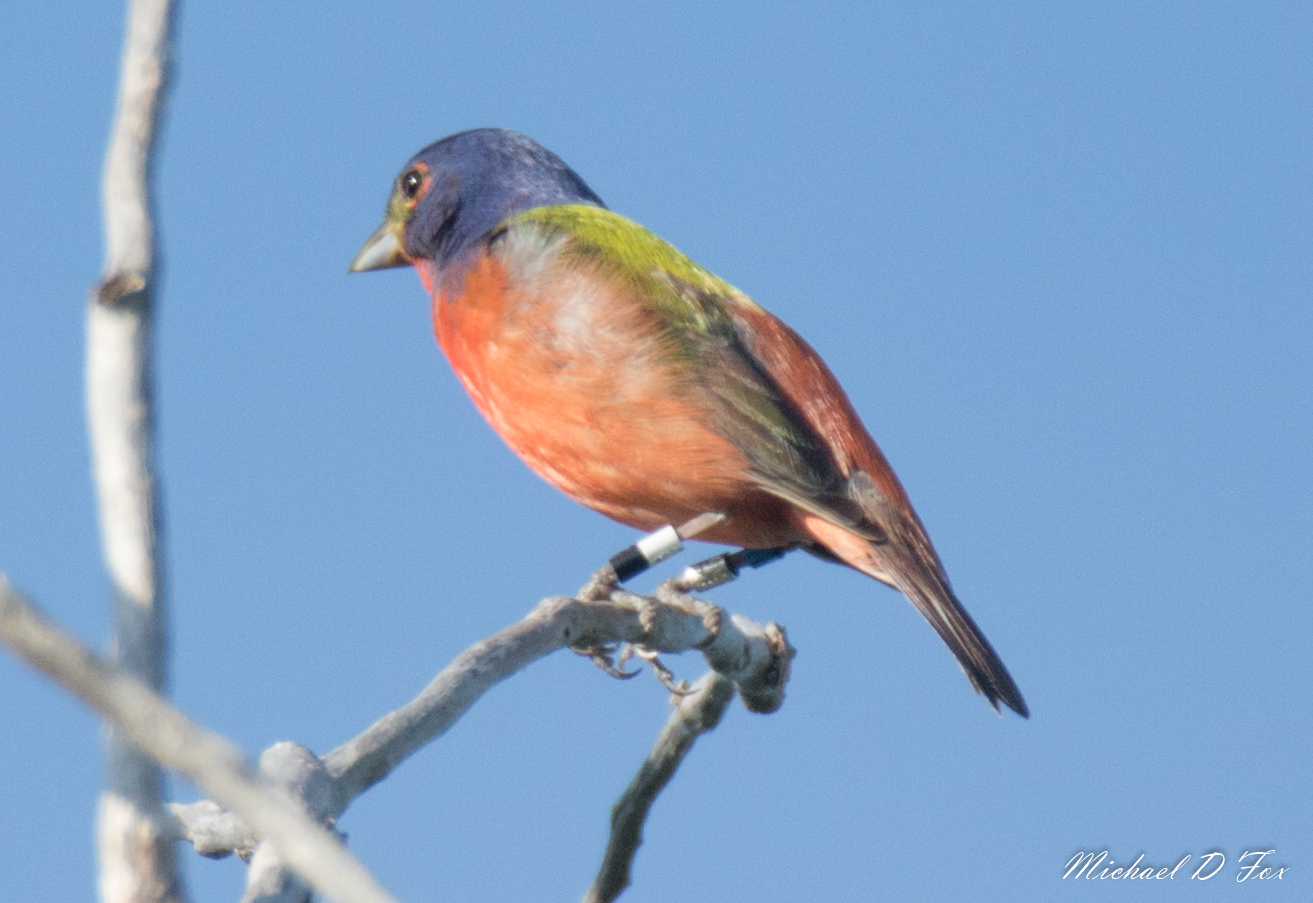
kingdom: Animalia
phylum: Chordata
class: Aves
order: Passeriformes
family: Cardinalidae
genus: Passerina
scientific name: Passerina ciris
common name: Painted bunting
